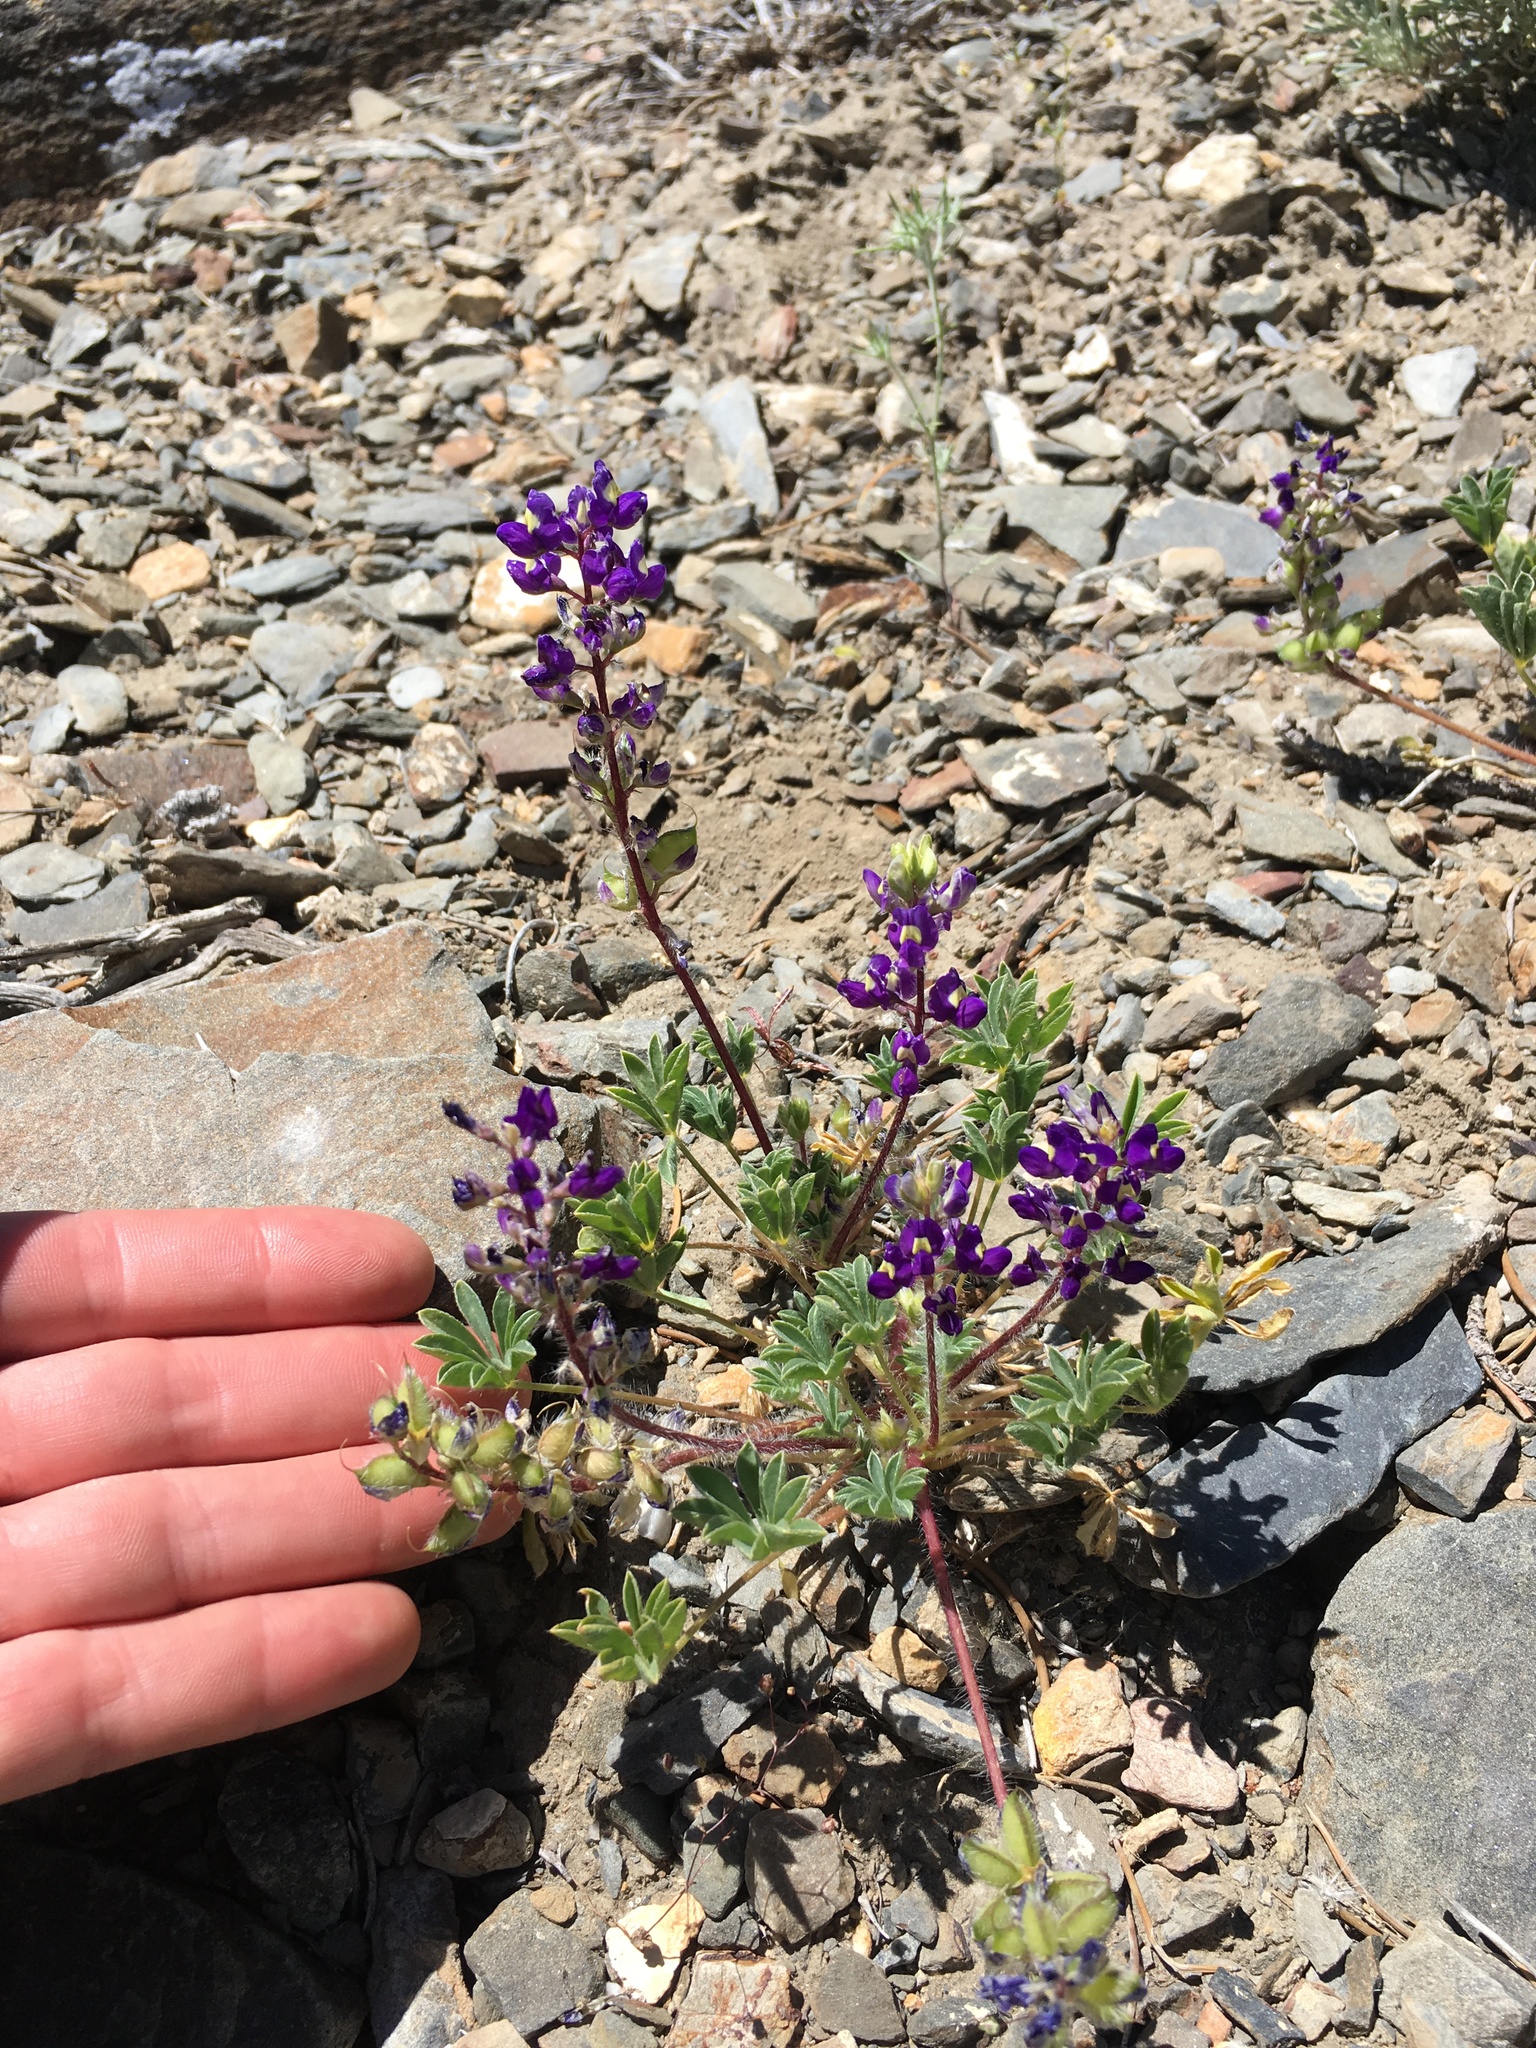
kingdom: Plantae
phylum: Tracheophyta
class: Magnoliopsida
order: Fabales
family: Fabaceae
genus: Lupinus
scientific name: Lupinus flavoculatus
